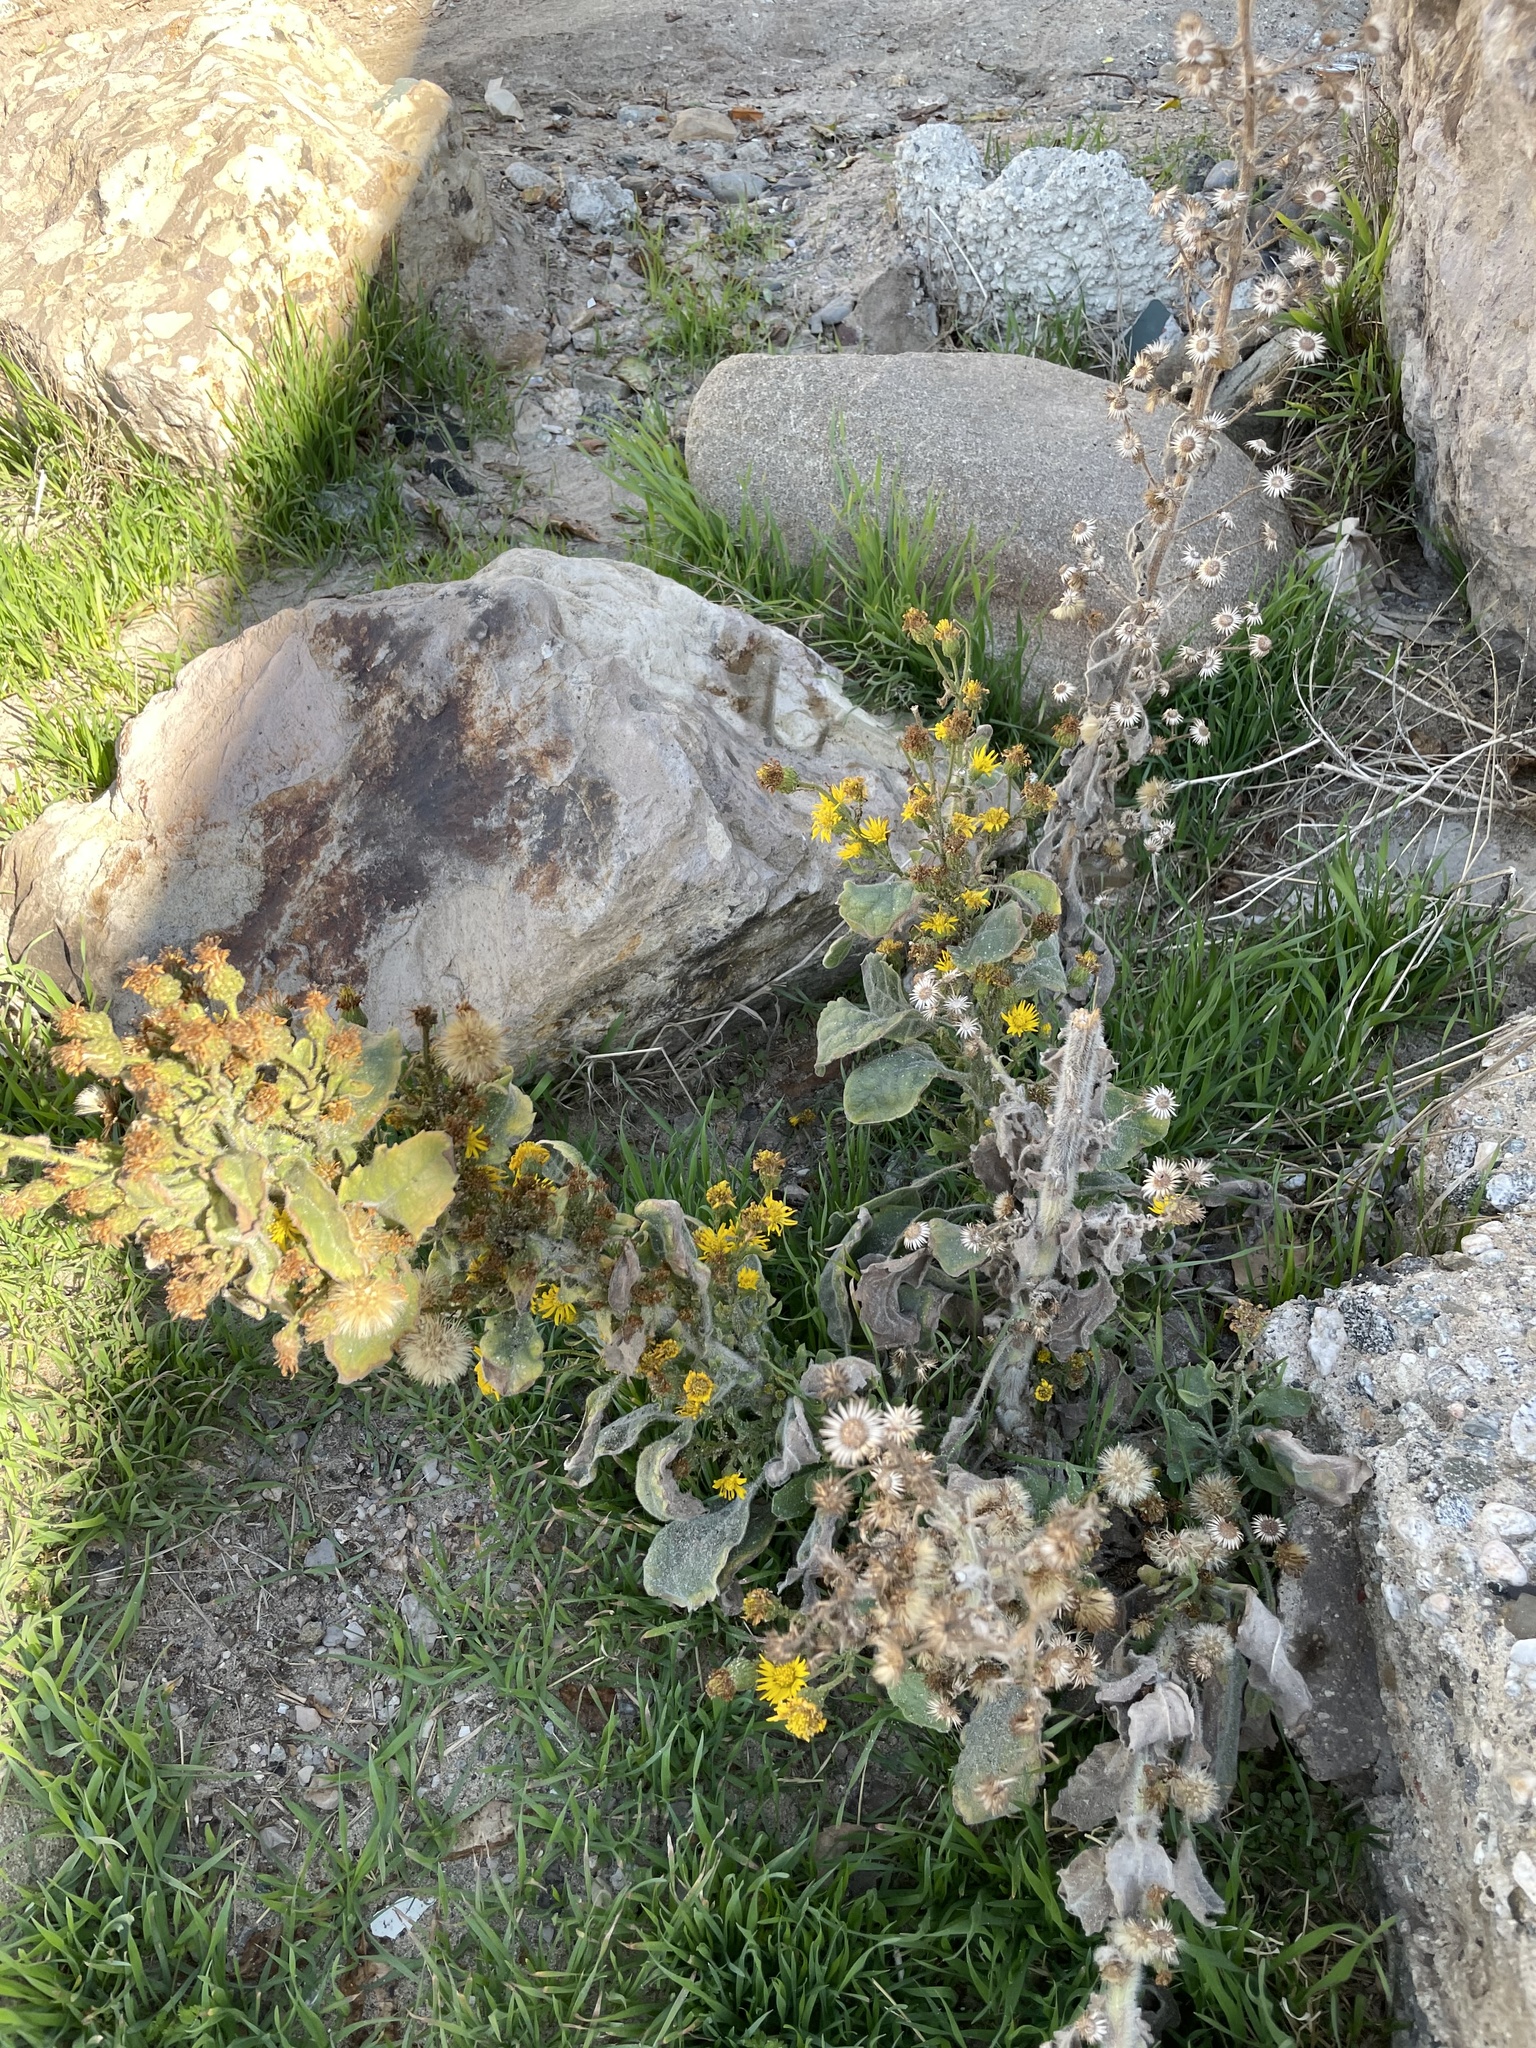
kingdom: Plantae
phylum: Tracheophyta
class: Magnoliopsida
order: Asterales
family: Asteraceae
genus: Heterotheca
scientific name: Heterotheca grandiflora
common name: Telegraphweed
